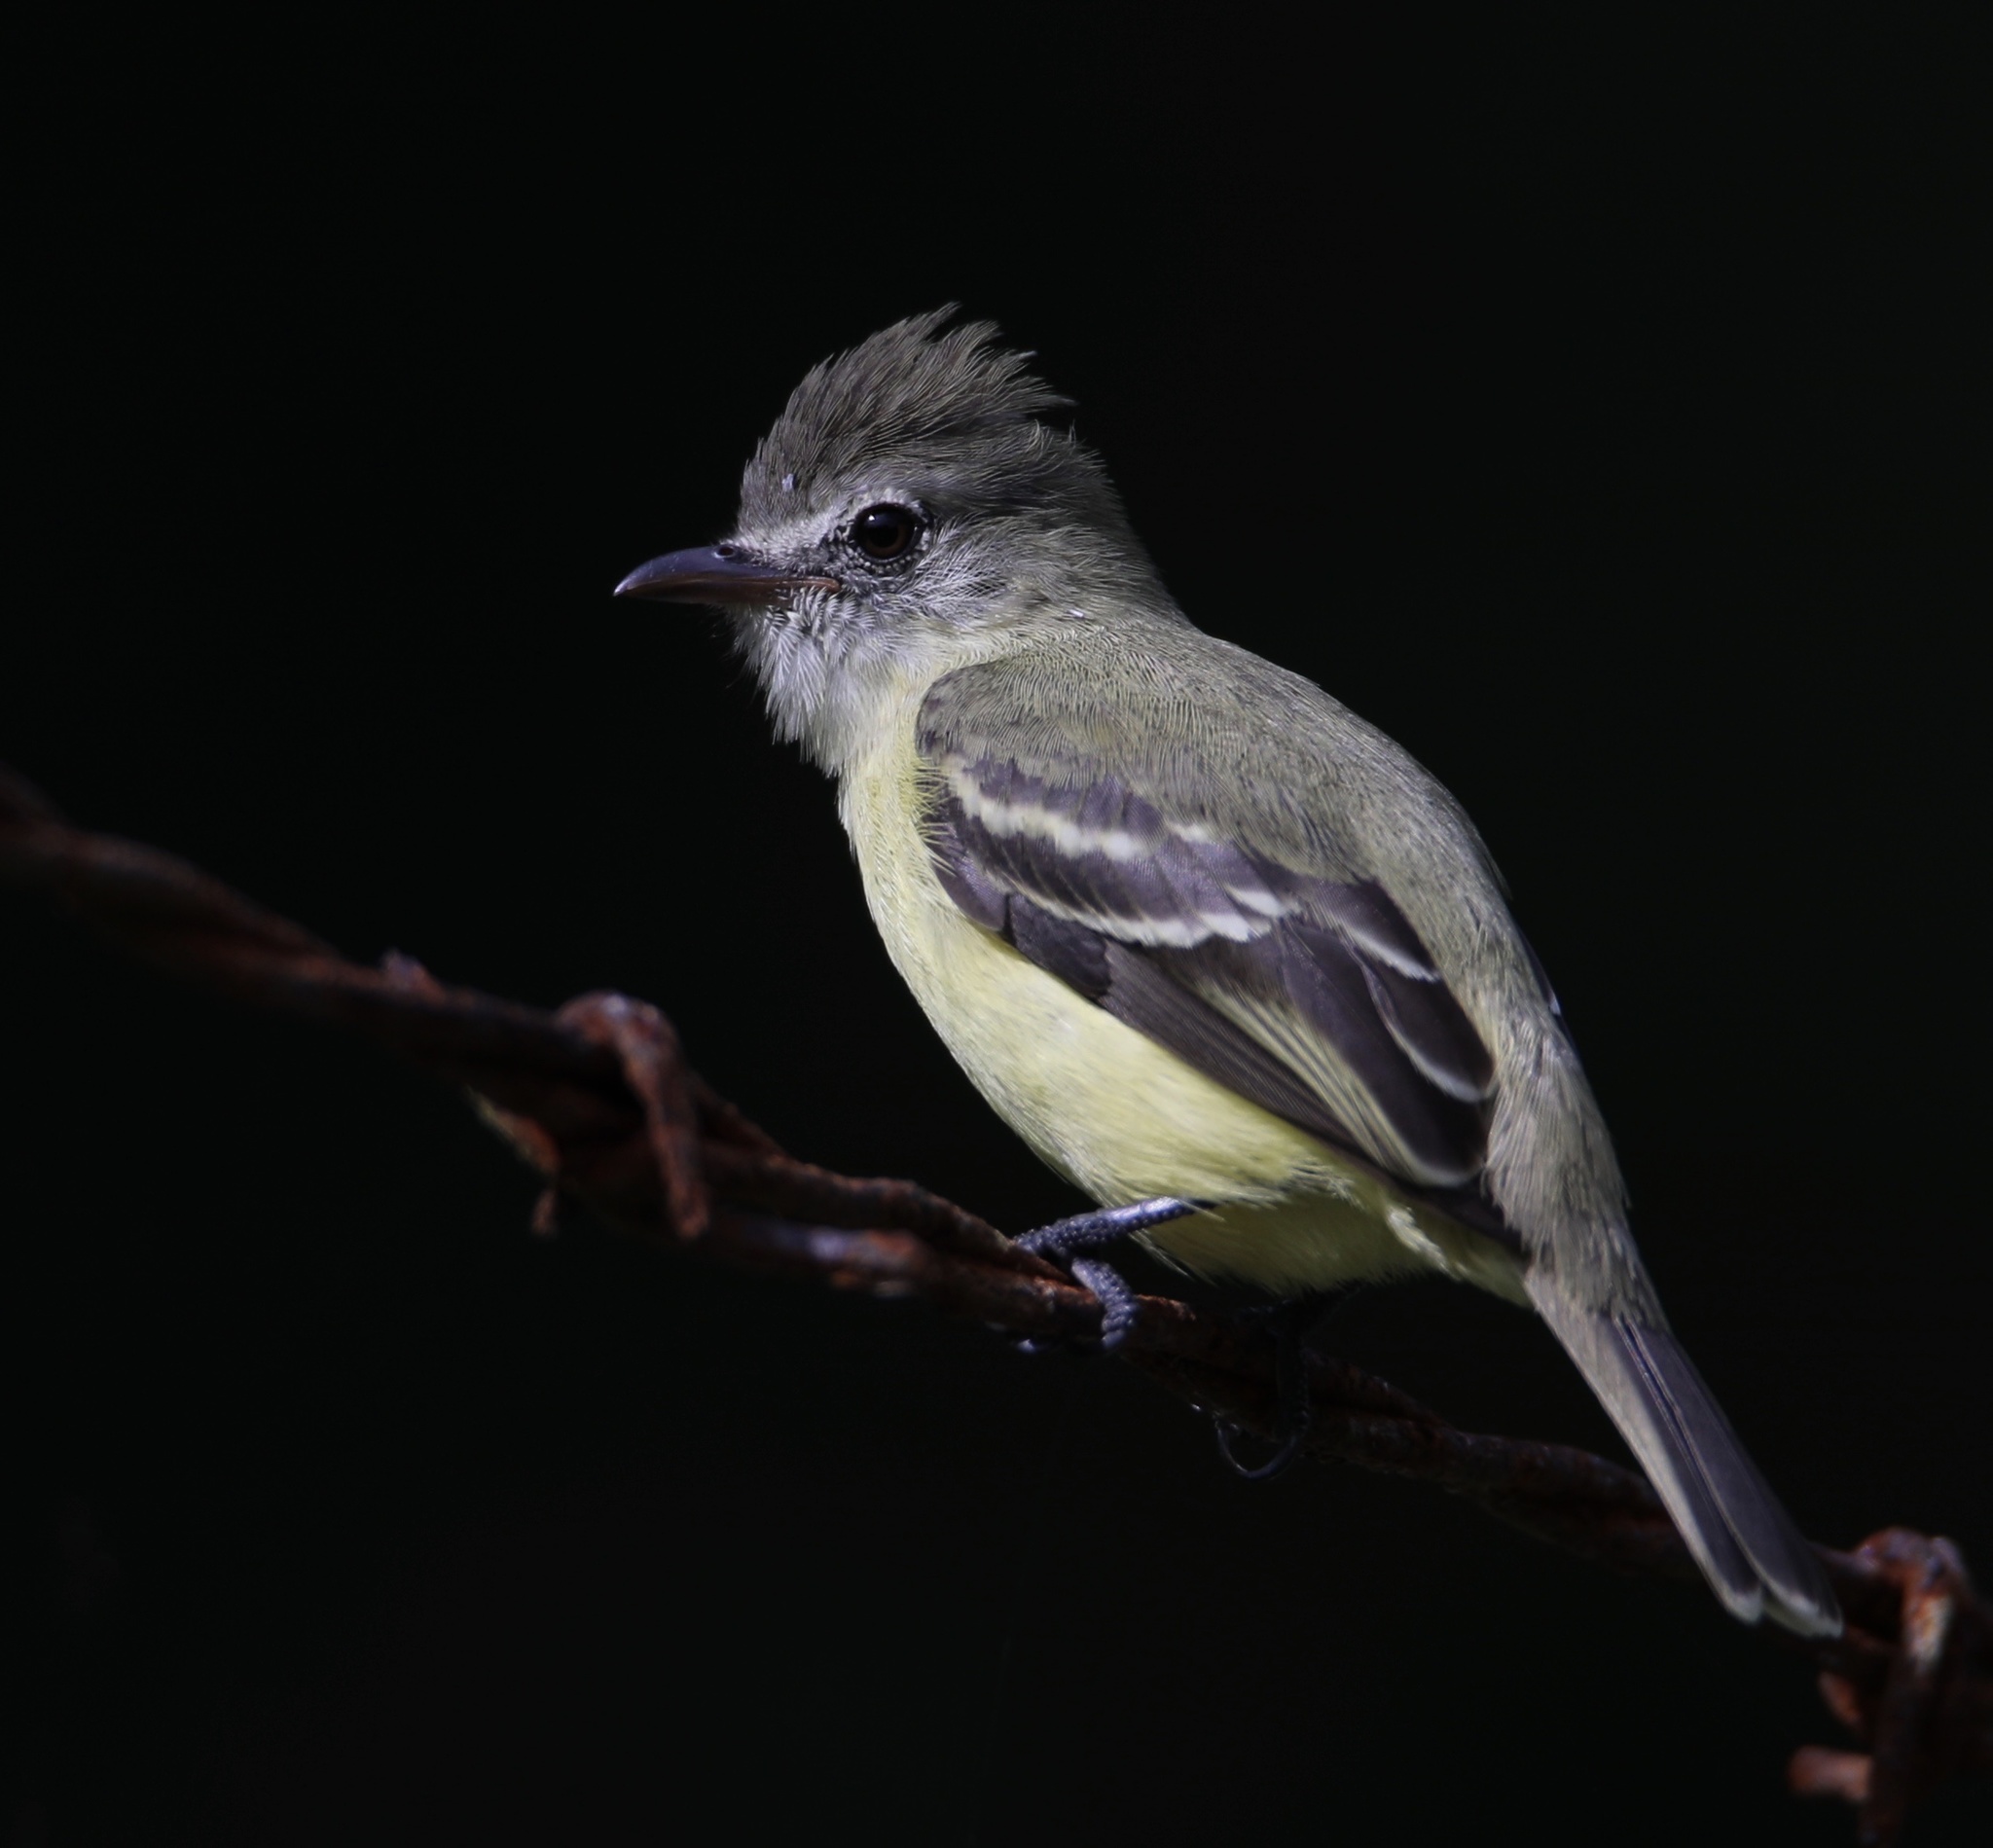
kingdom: Animalia
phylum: Chordata
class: Aves
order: Passeriformes
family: Tyrannidae
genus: Camptostoma
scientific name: Camptostoma obsoletum
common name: Southern beardless-tyrannulet
